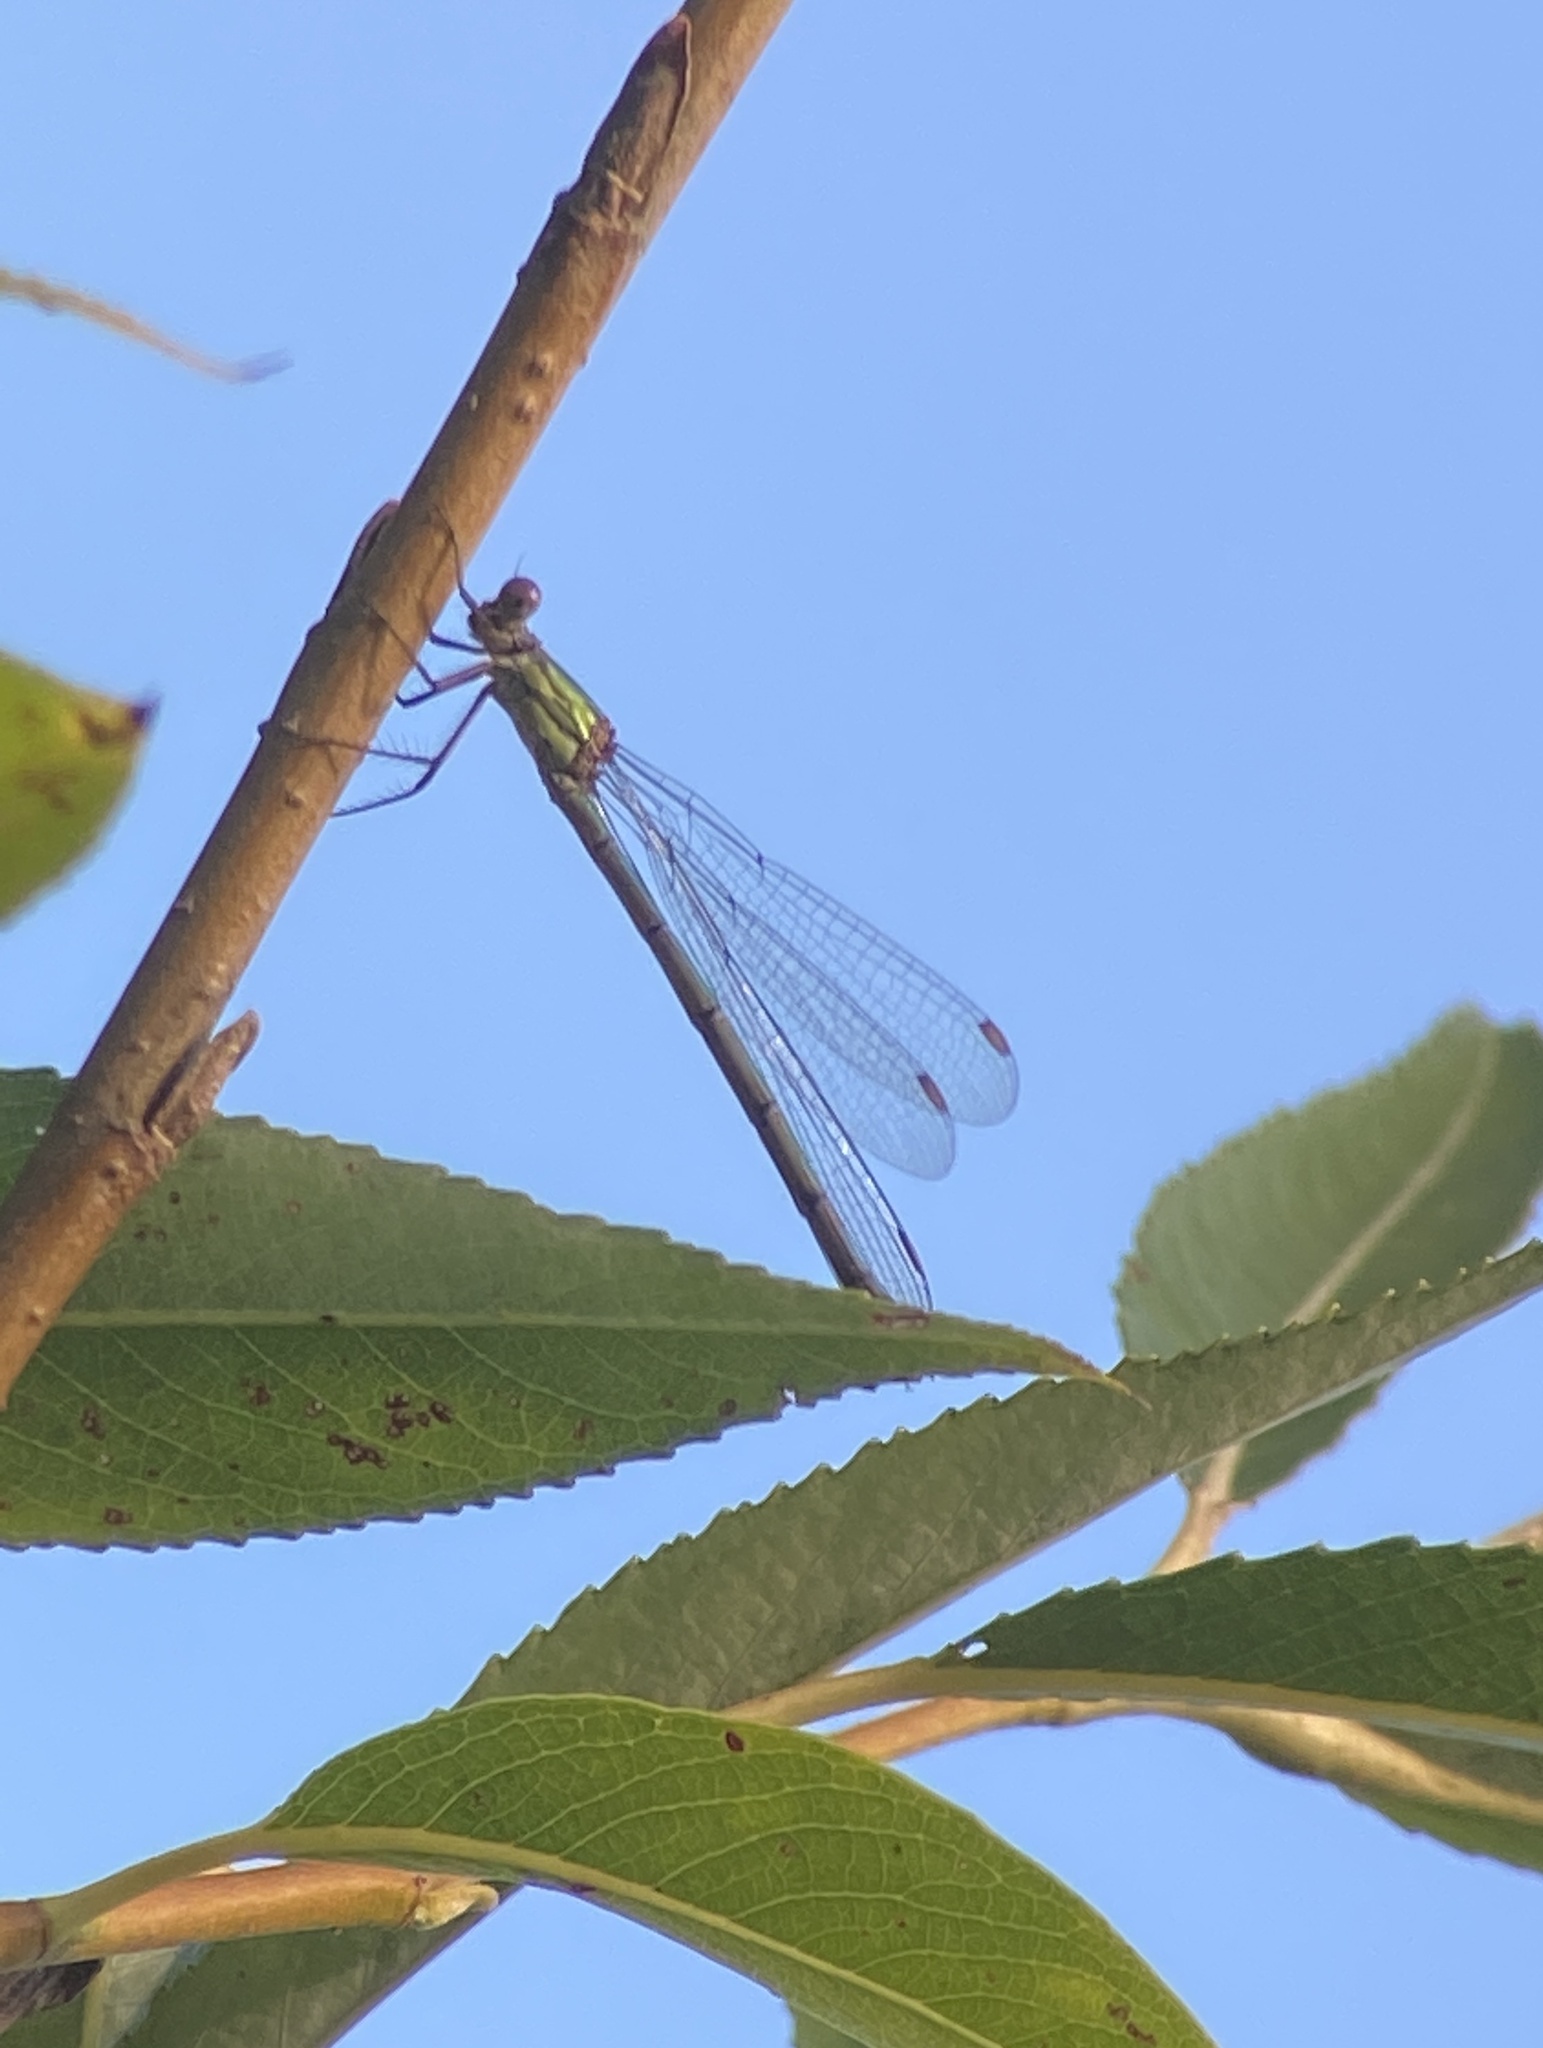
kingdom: Animalia
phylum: Arthropoda
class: Insecta
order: Odonata
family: Lestidae
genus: Chalcolestes
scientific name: Chalcolestes viridis
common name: Green emerald damselfly
